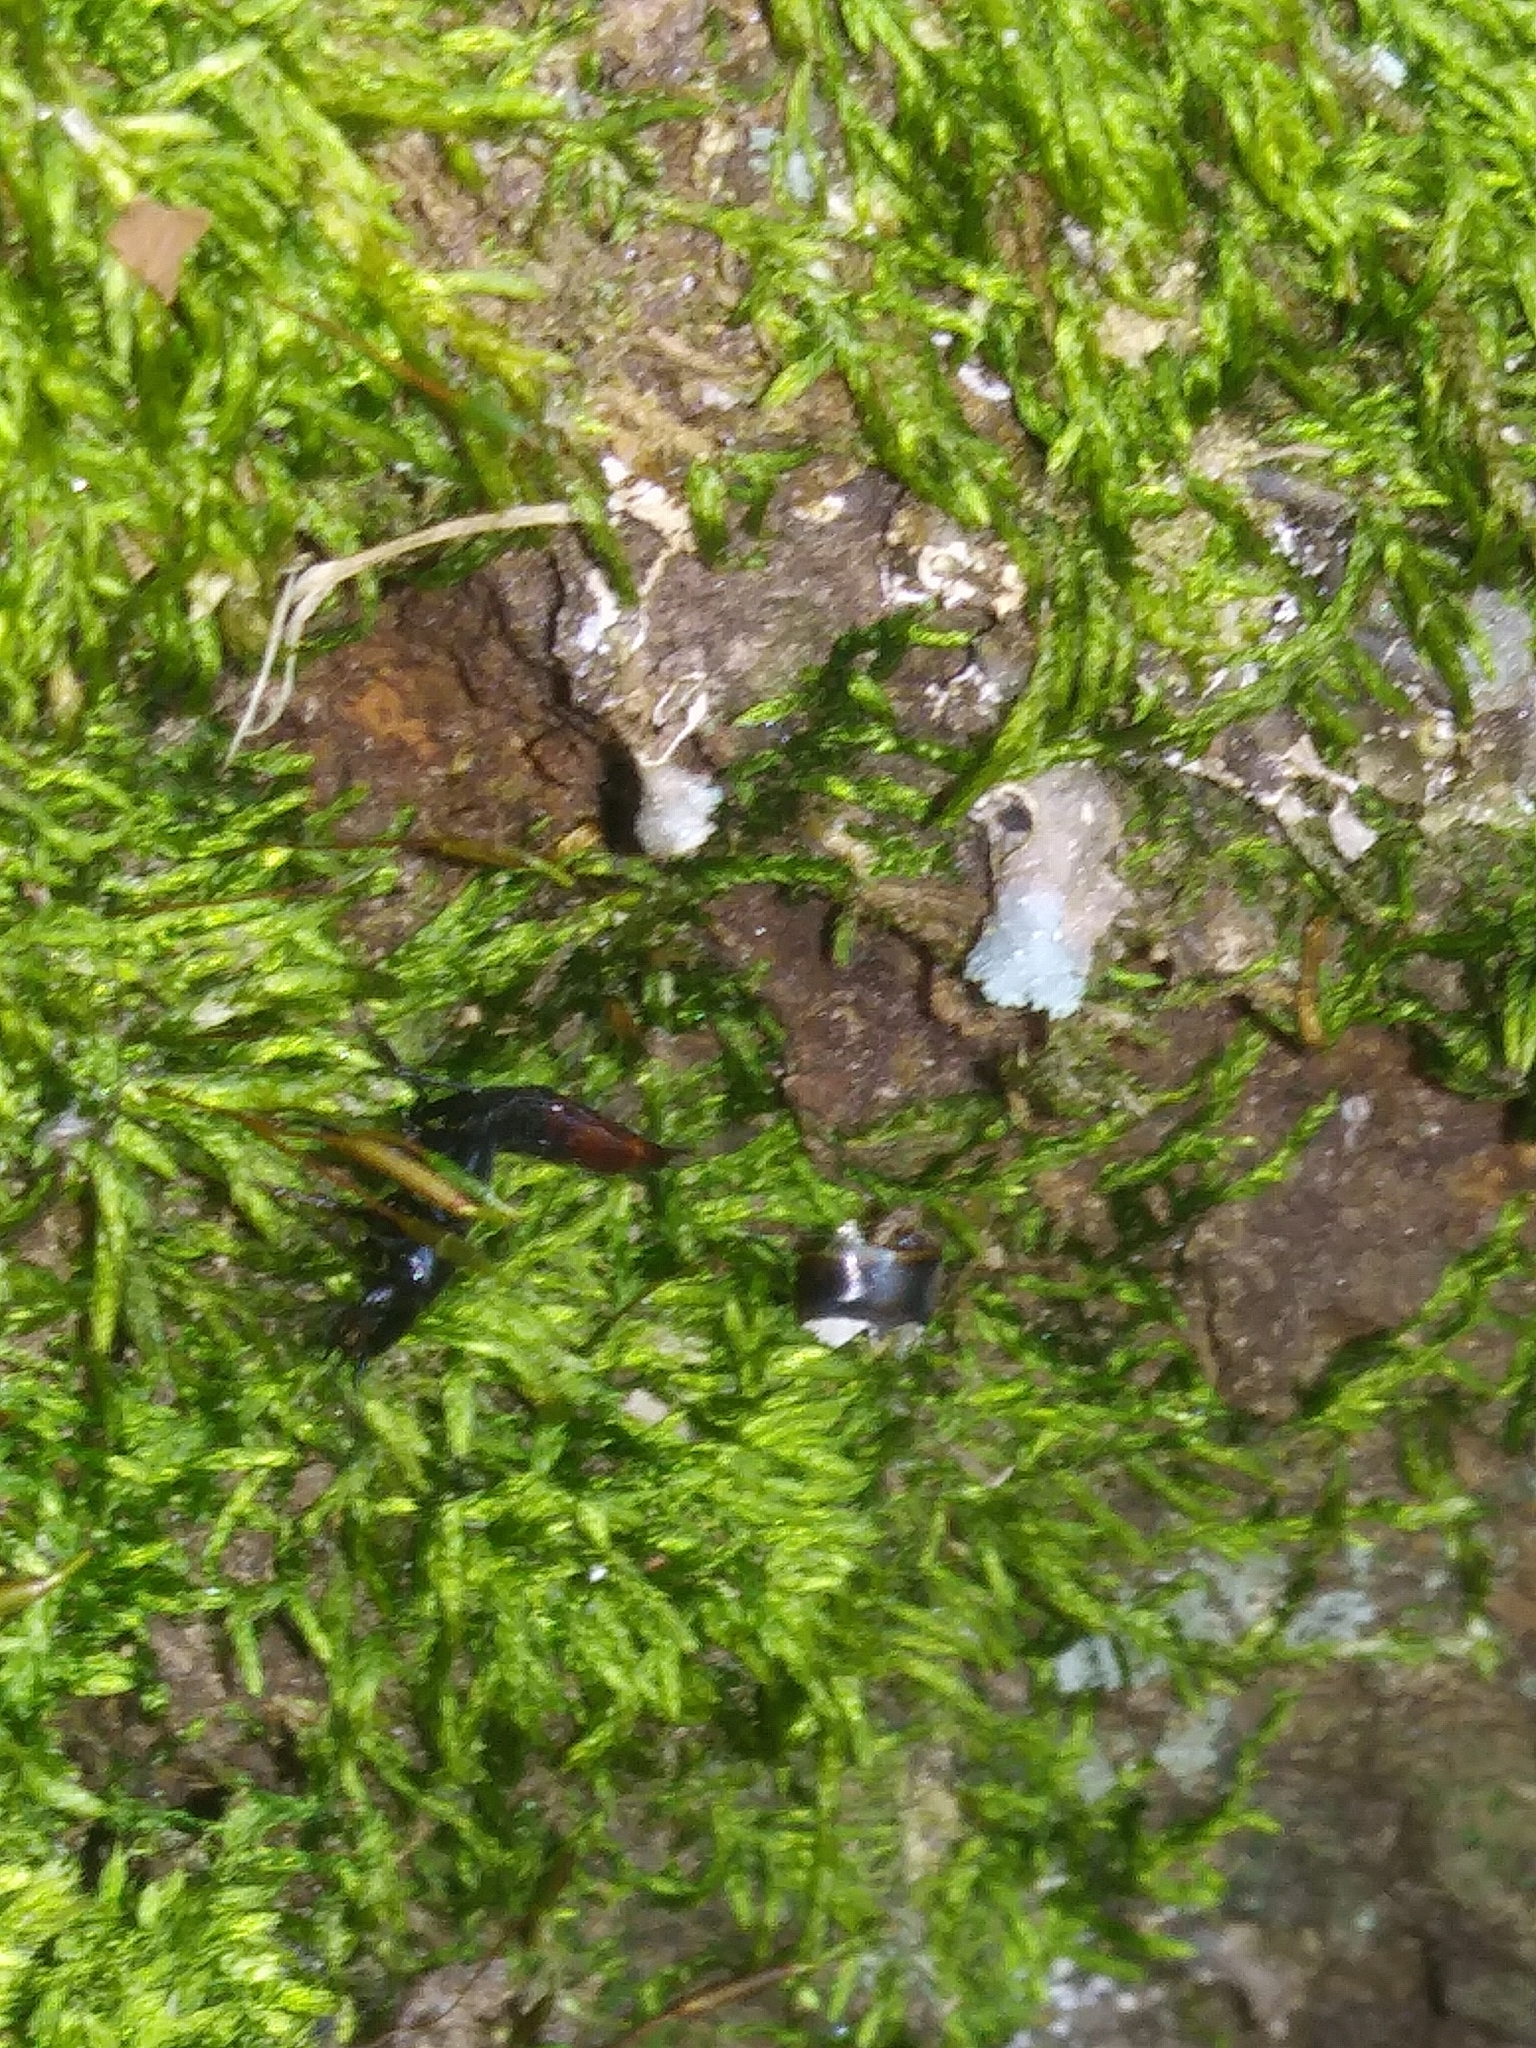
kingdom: Animalia
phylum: Arthropoda
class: Insecta
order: Coleoptera
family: Staphylinidae
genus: Hesperus
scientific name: Hesperus apicialis
